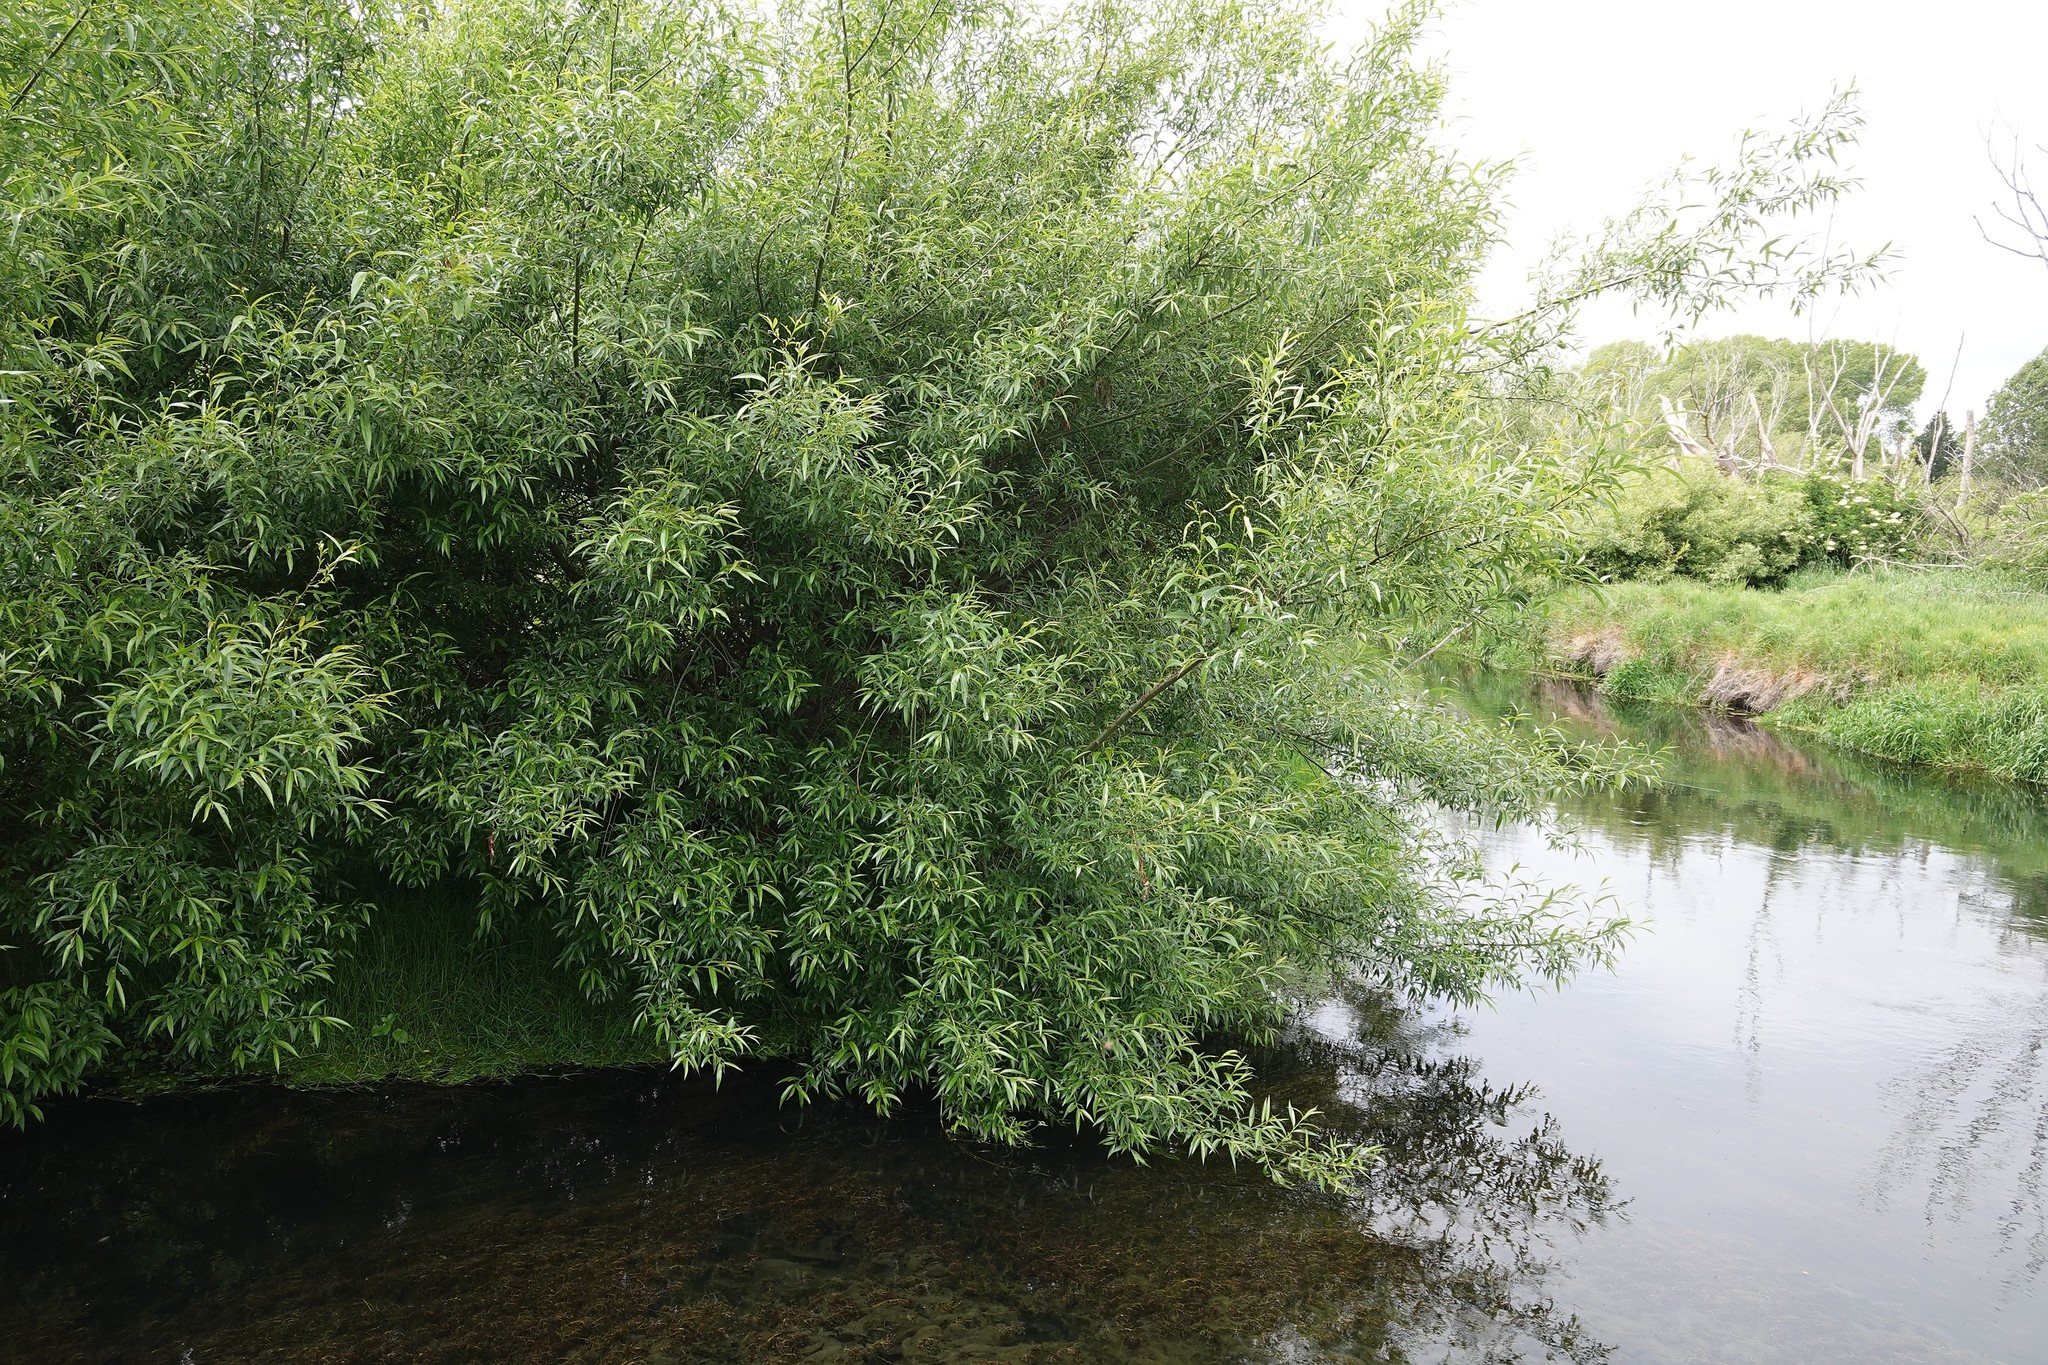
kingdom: Plantae
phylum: Tracheophyta
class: Magnoliopsida
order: Malpighiales
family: Salicaceae
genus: Salix
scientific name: Salix fragilis
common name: Crack willow
